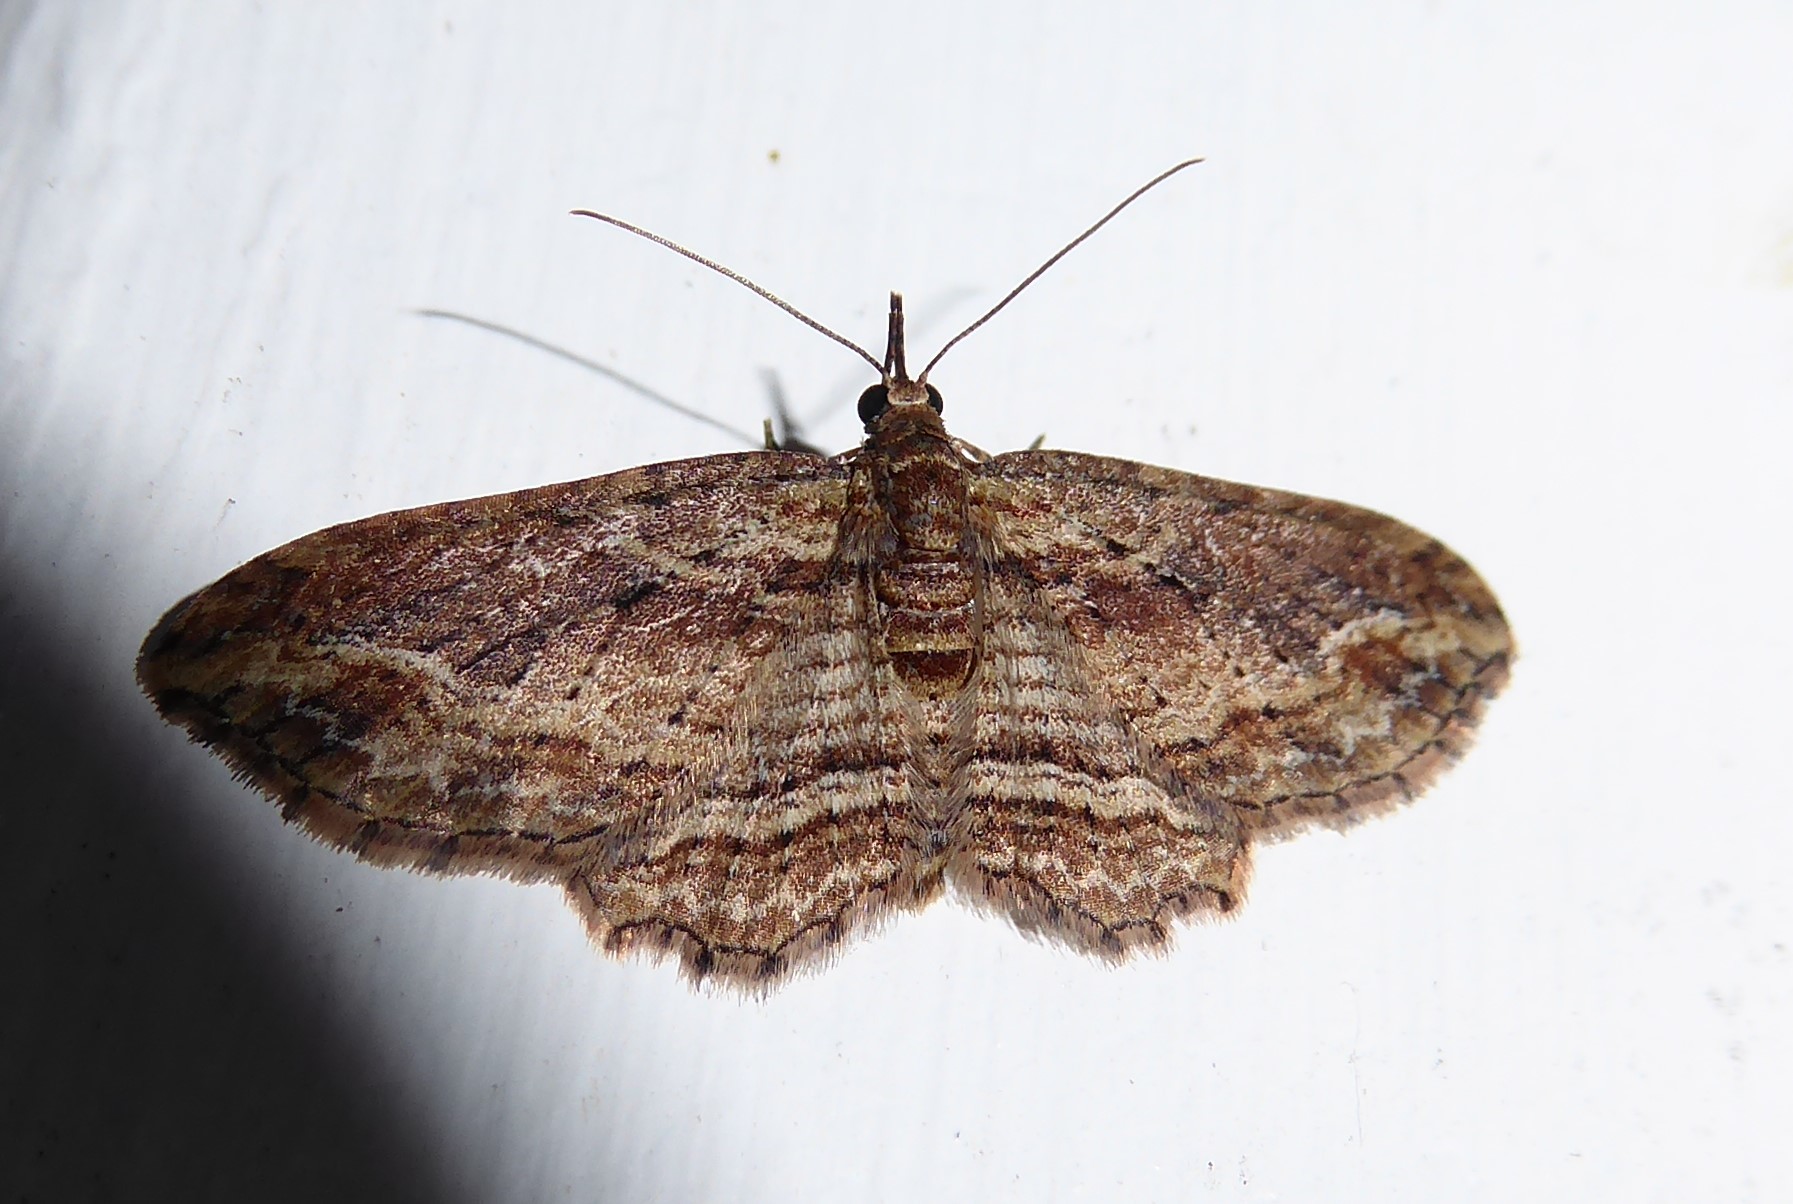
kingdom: Animalia
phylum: Arthropoda
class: Insecta
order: Lepidoptera
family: Geometridae
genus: Chloroclystis
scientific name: Chloroclystis filata
